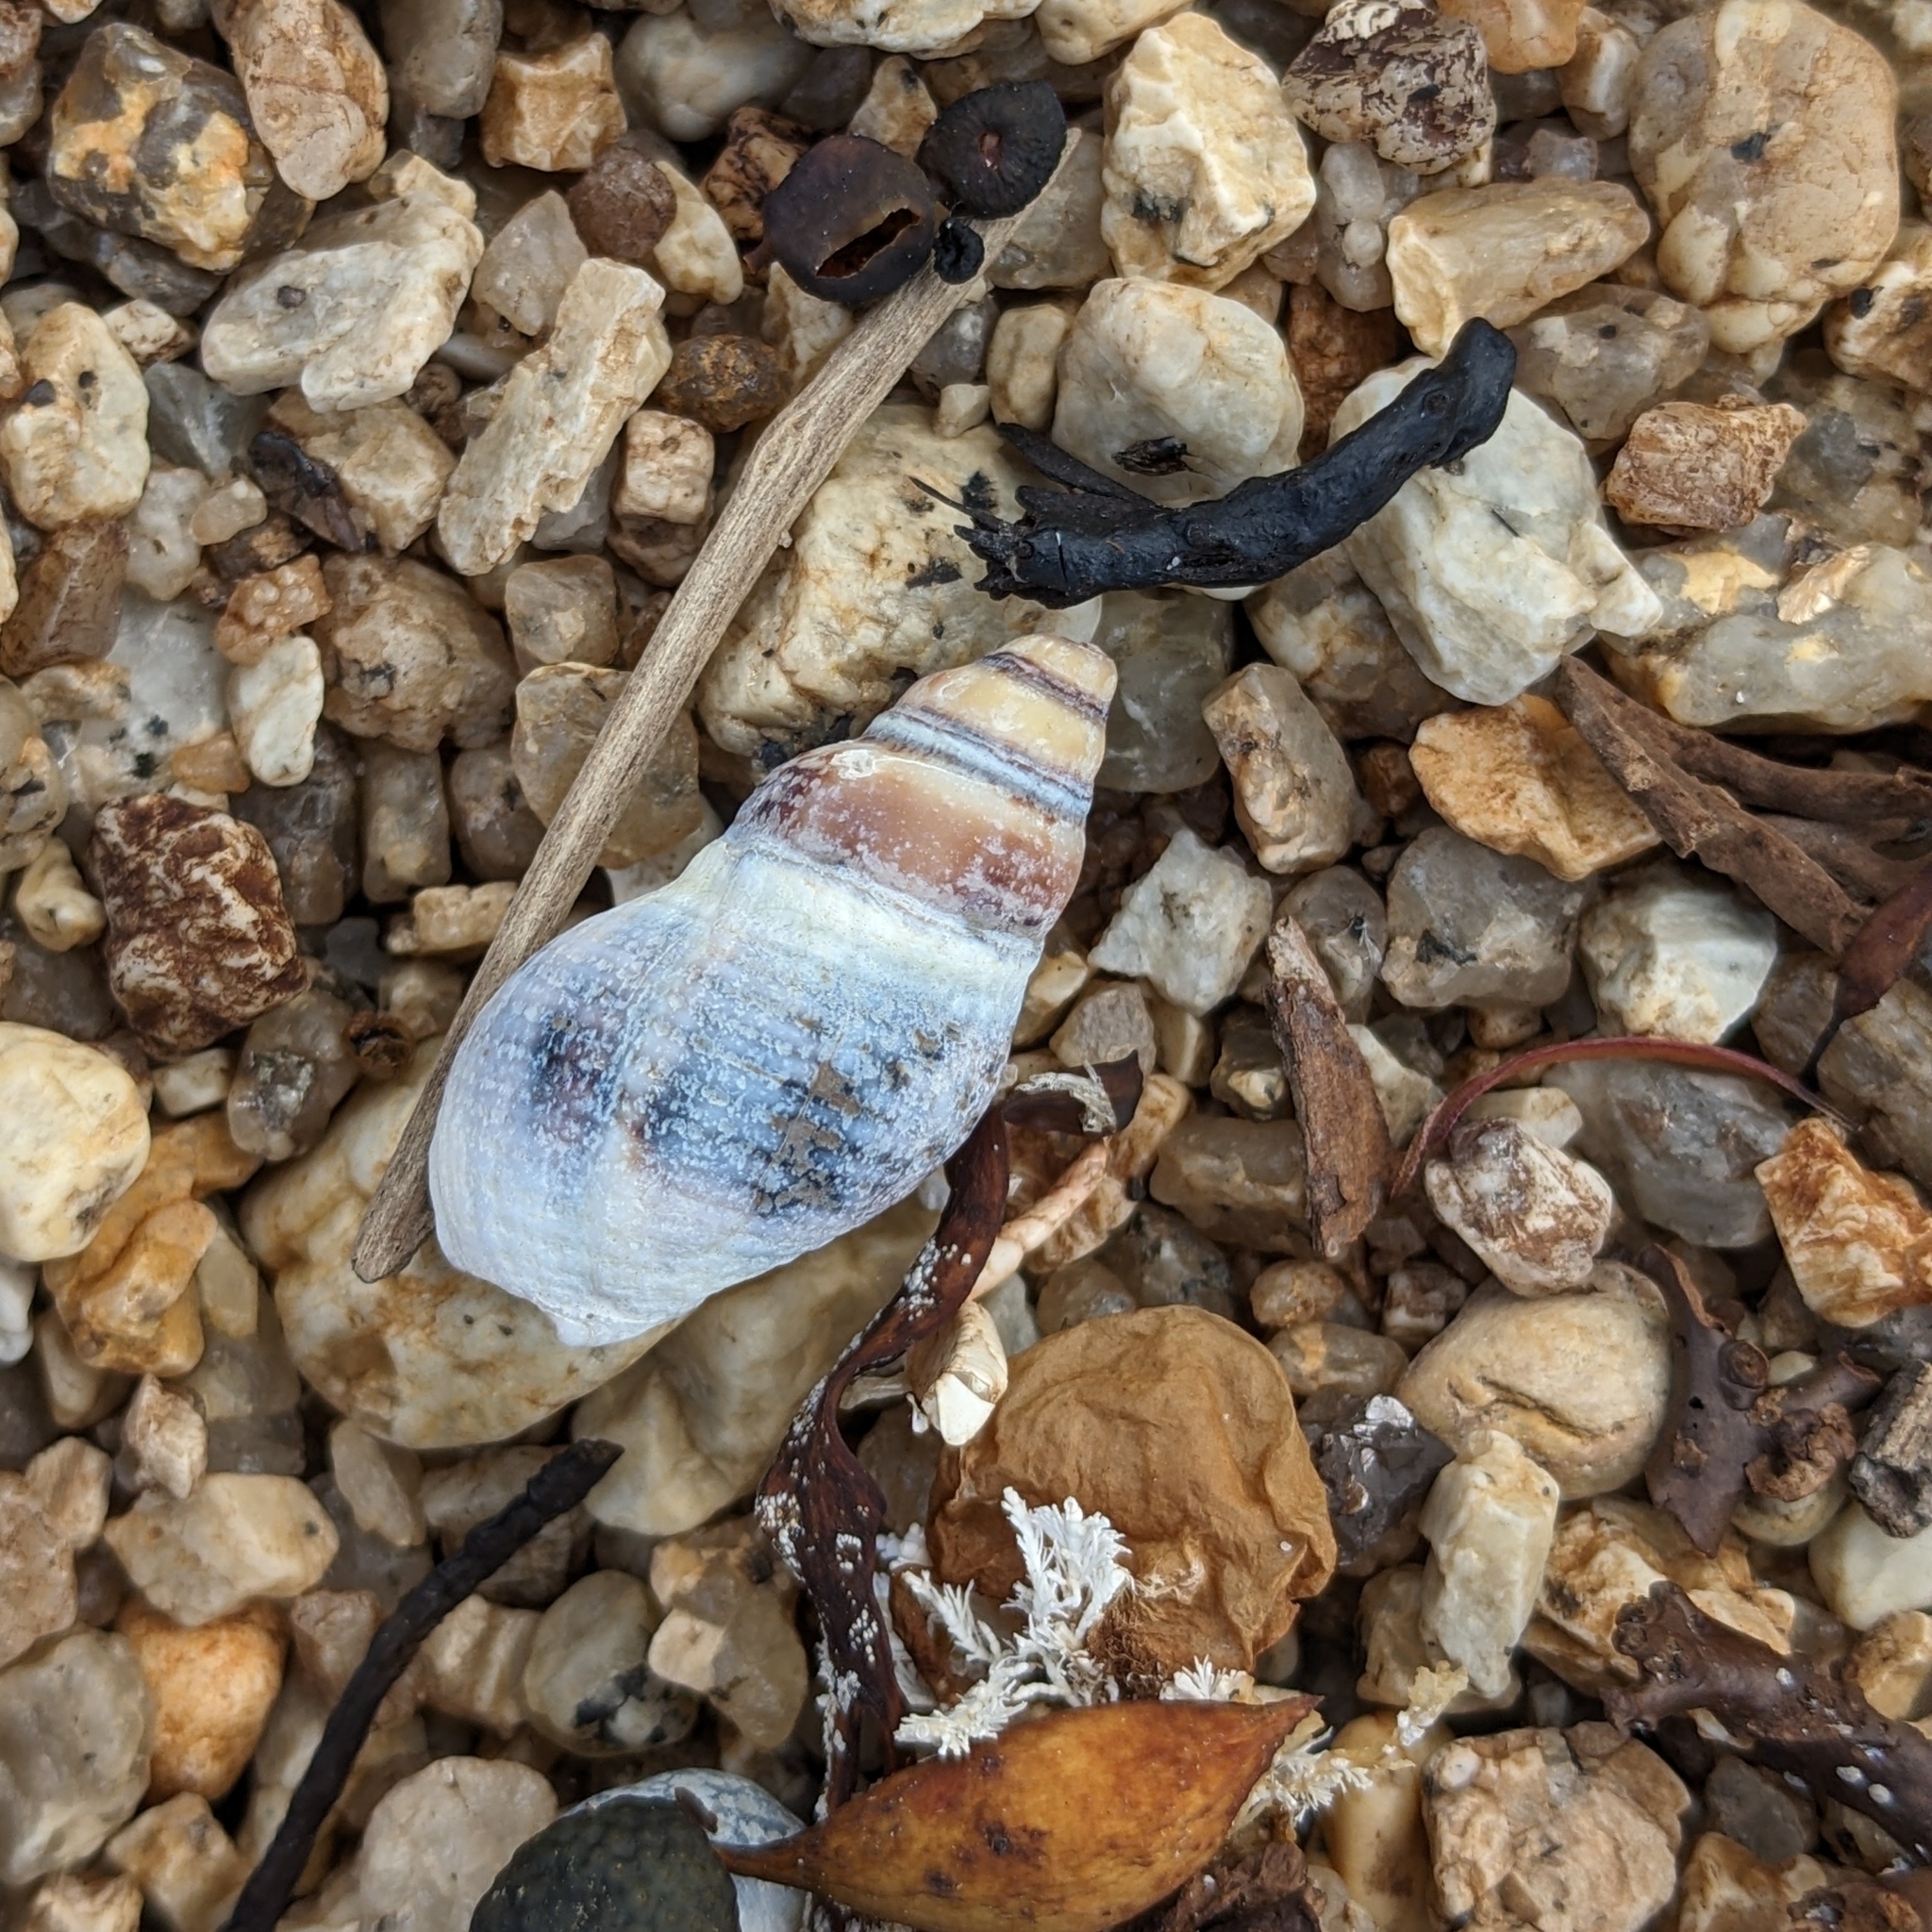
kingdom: Animalia
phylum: Mollusca
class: Gastropoda
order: Neogastropoda
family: Cominellidae
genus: Cominella
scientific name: Cominella lineolata
